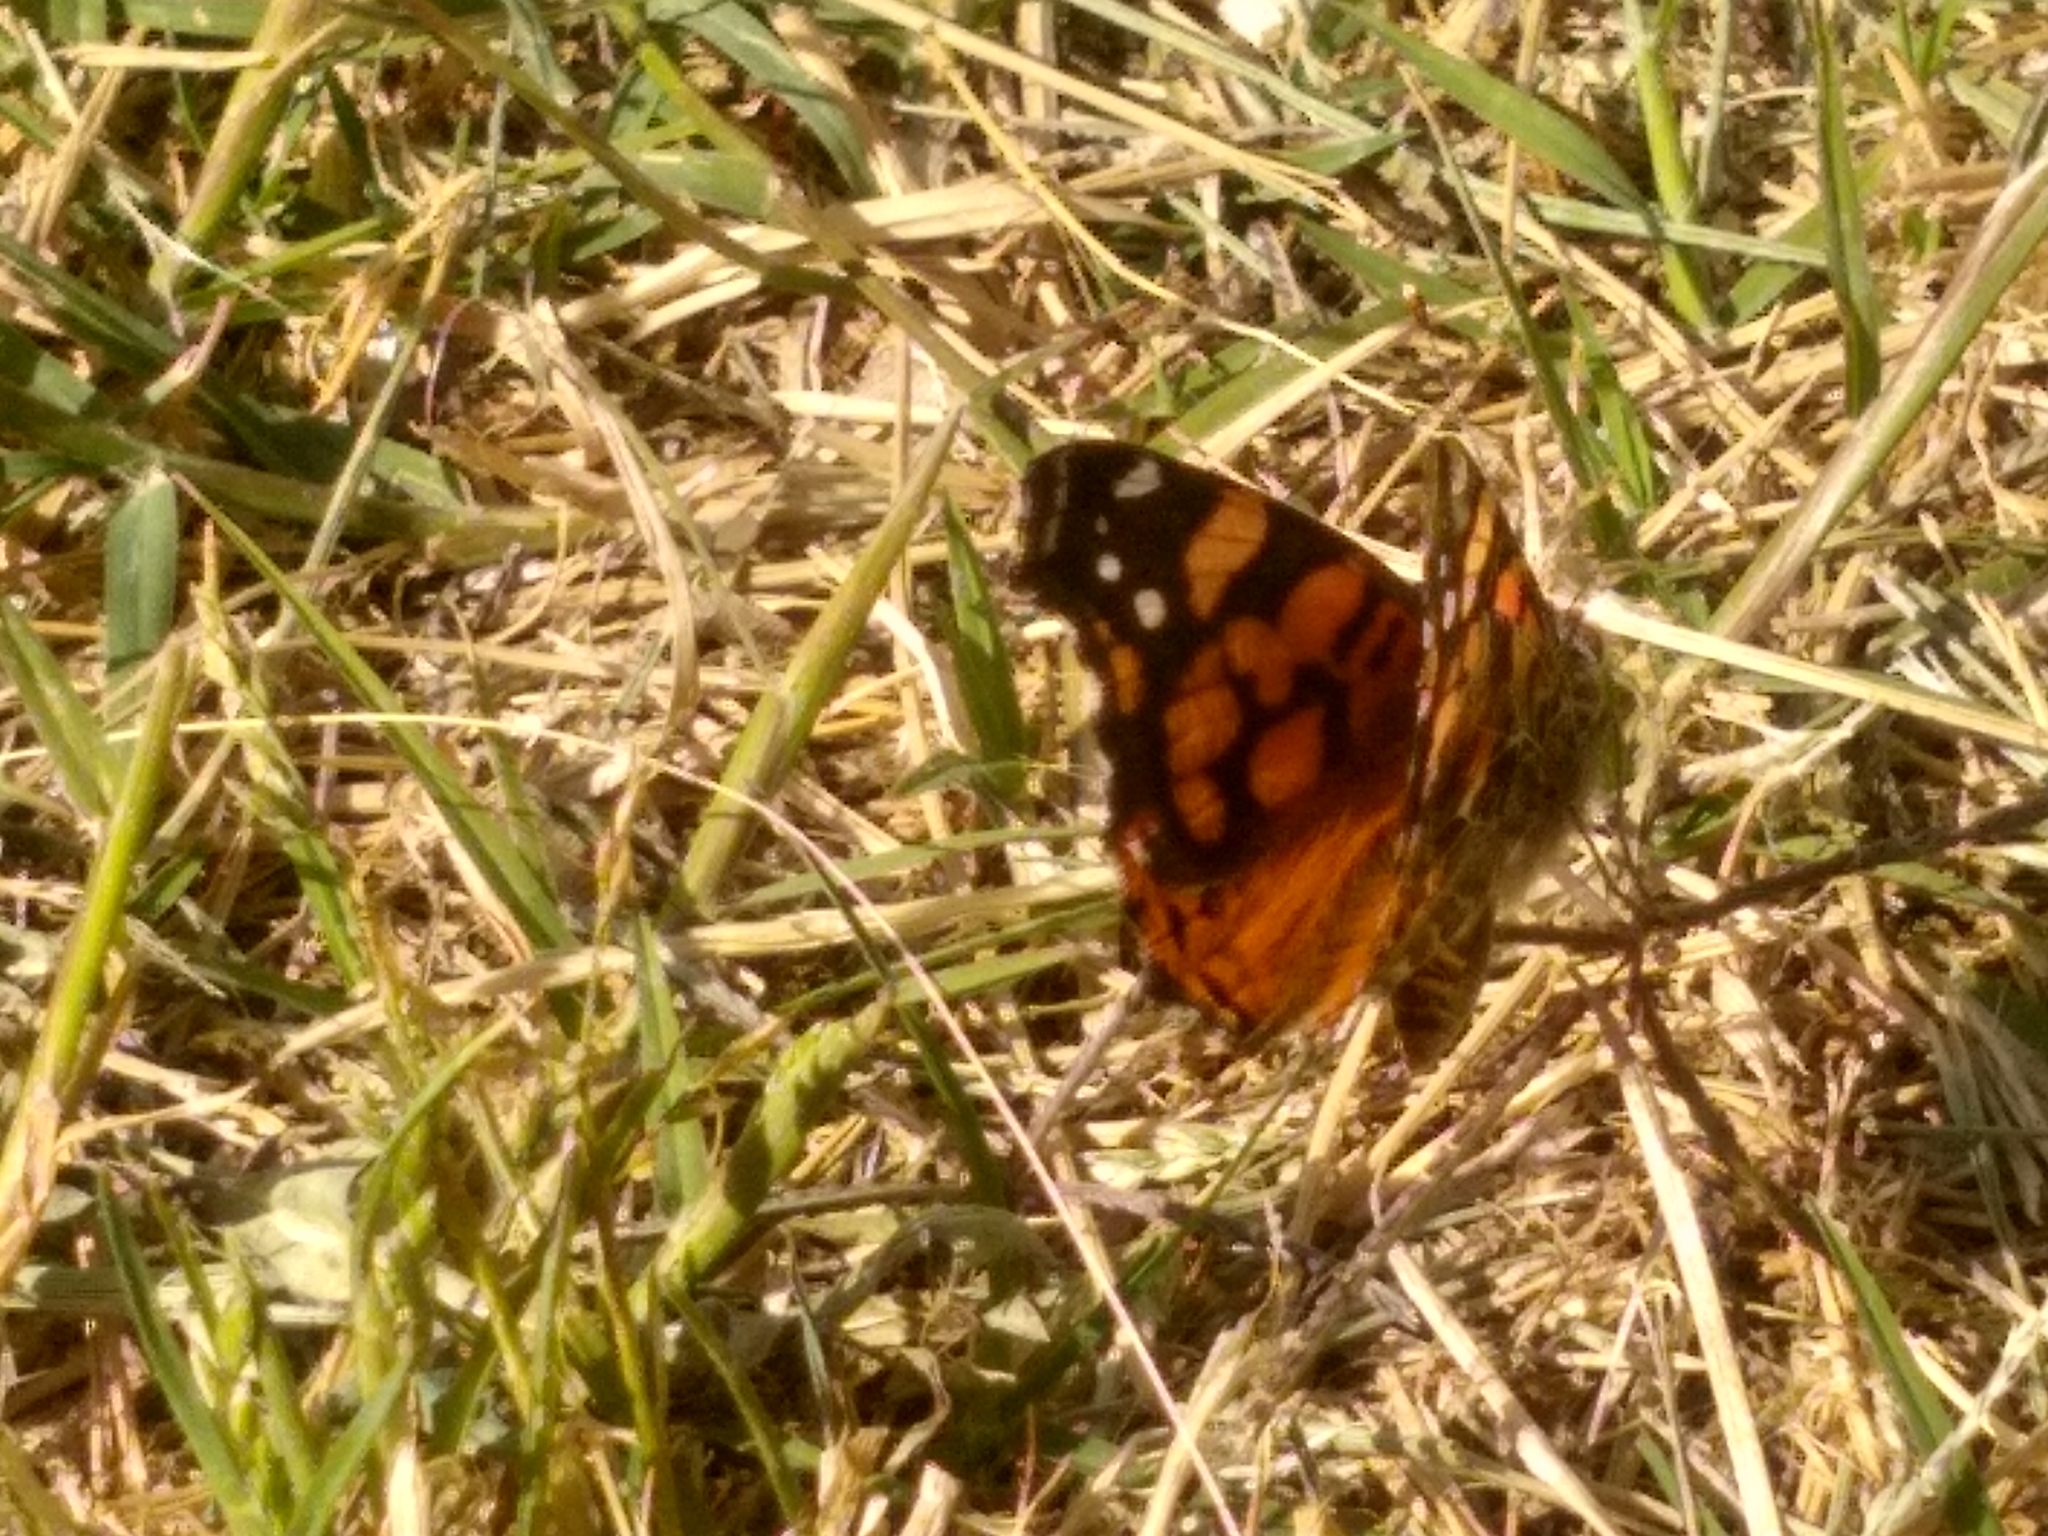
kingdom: Animalia
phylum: Arthropoda
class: Insecta
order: Lepidoptera
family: Nymphalidae
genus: Vanessa
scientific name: Vanessa annabella
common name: West coast lady
